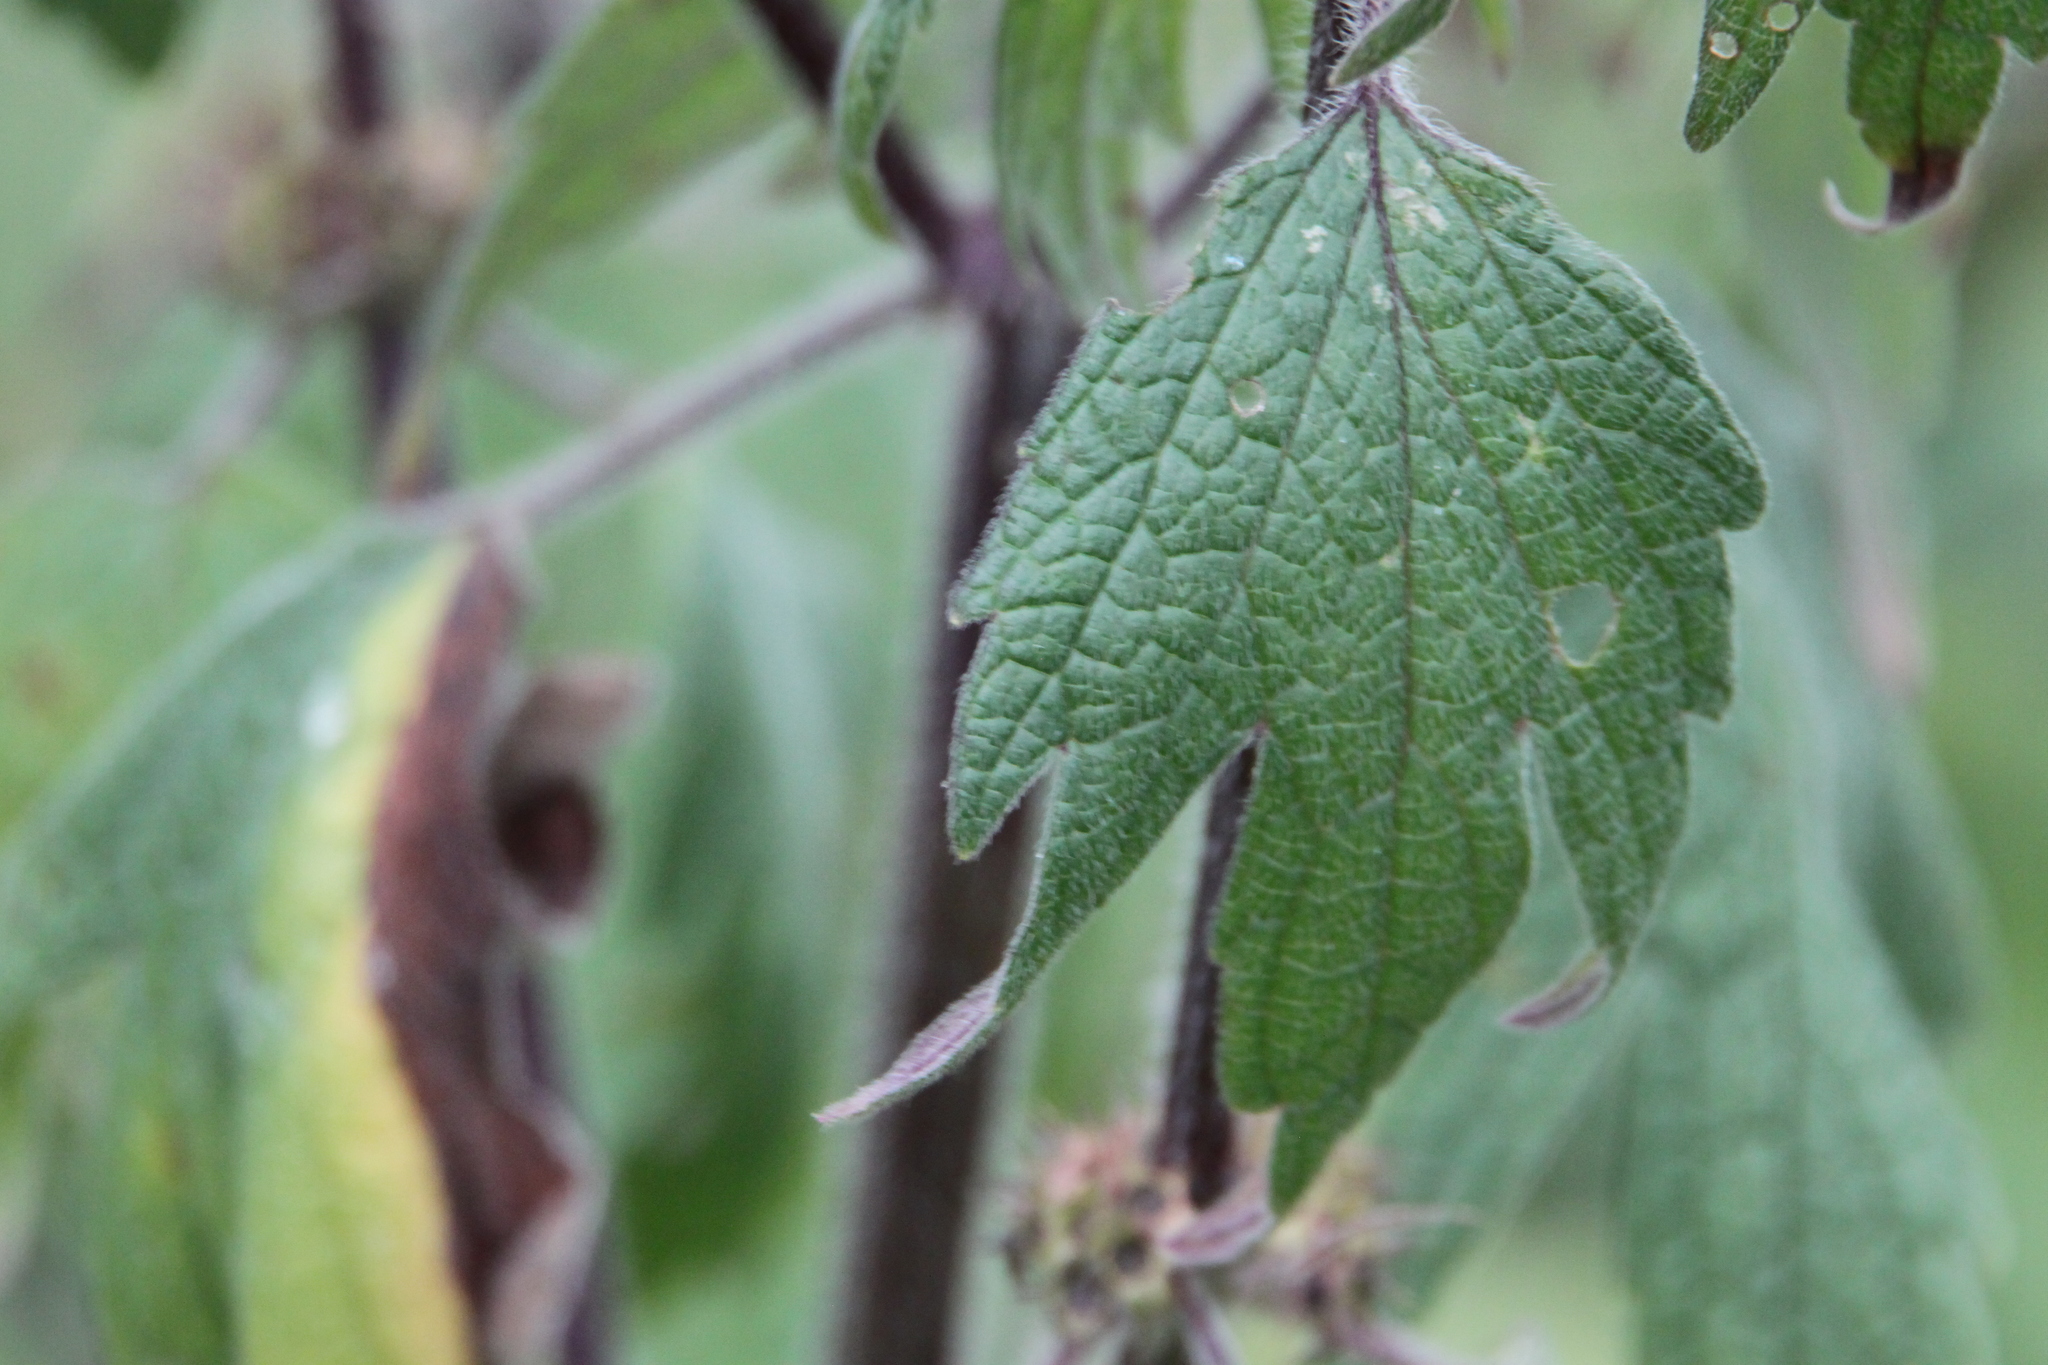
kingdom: Plantae
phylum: Tracheophyta
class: Magnoliopsida
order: Lamiales
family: Lamiaceae
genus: Leonurus
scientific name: Leonurus quinquelobatus
